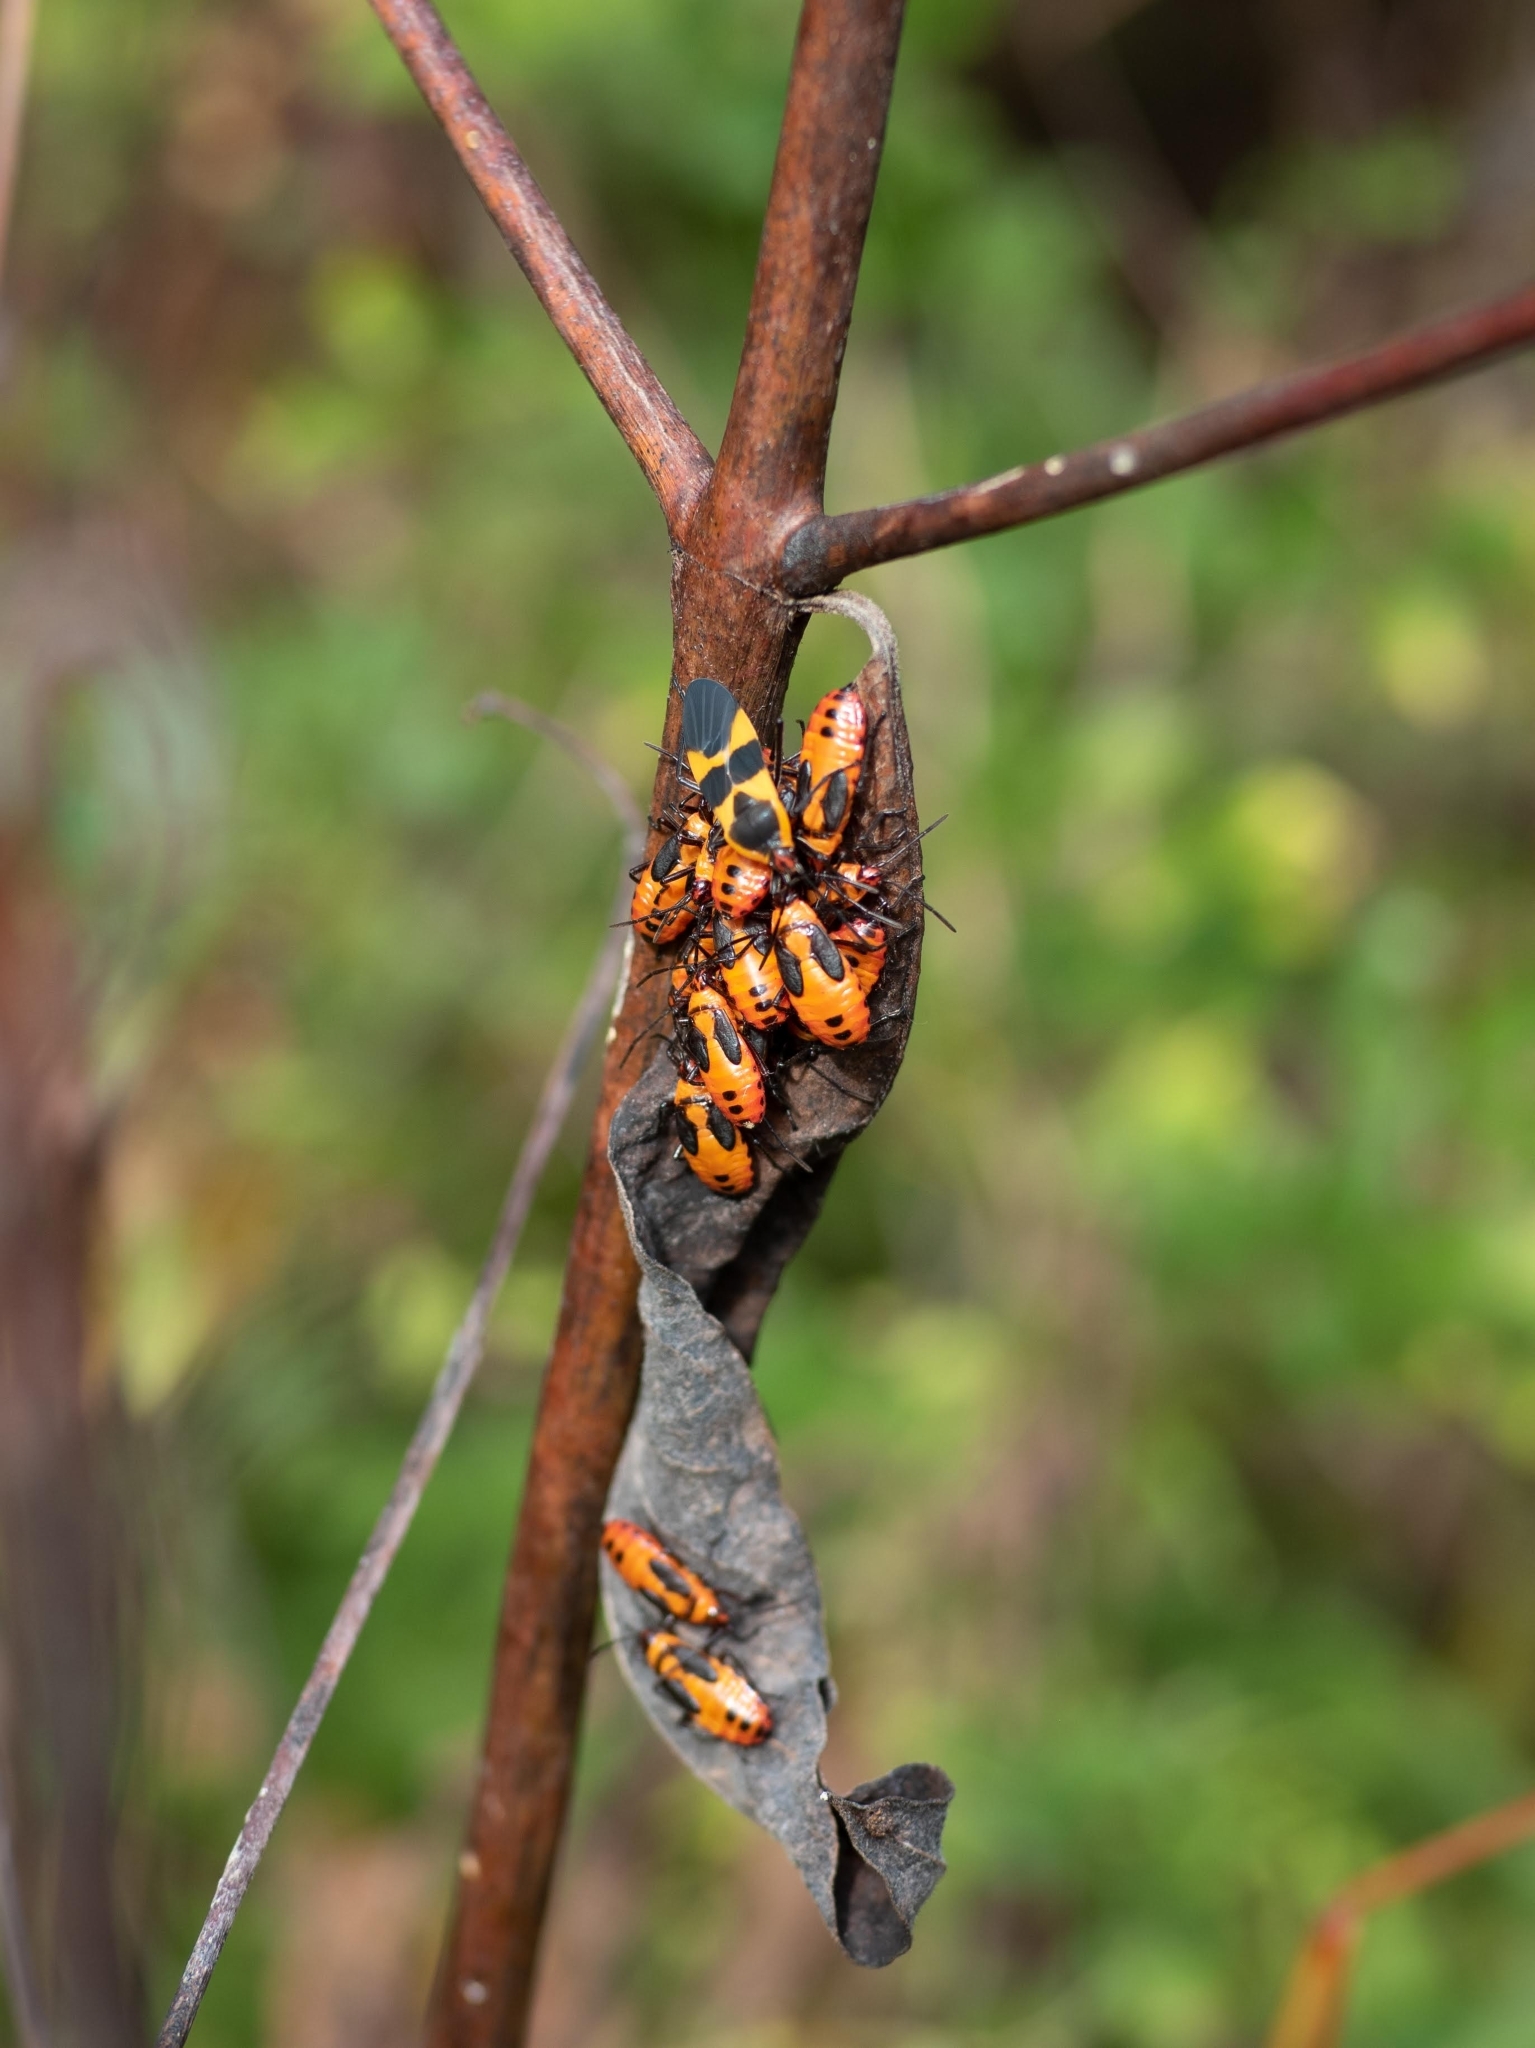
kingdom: Animalia
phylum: Arthropoda
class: Insecta
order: Hemiptera
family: Lygaeidae
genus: Oncopeltus
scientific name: Oncopeltus fasciatus
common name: Large milkweed bug
